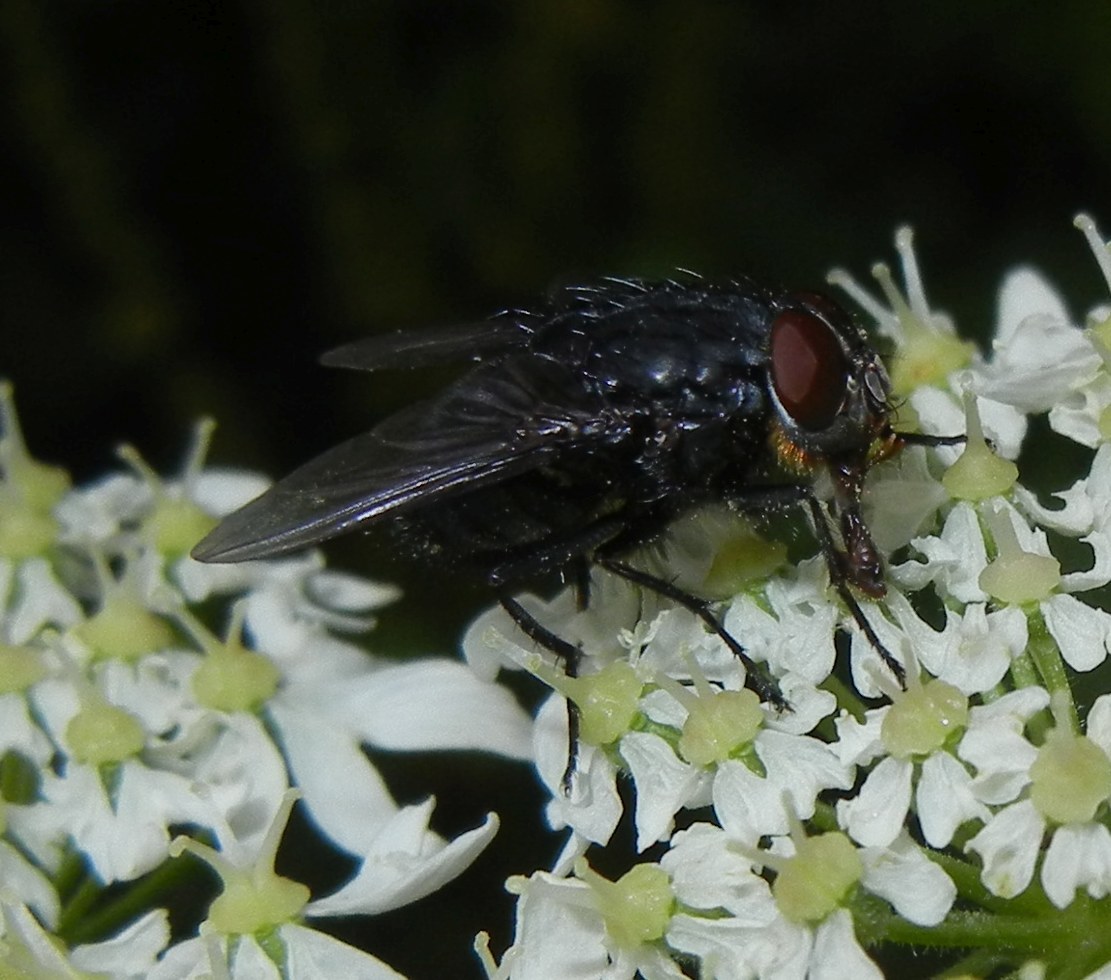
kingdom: Animalia
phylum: Arthropoda
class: Insecta
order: Diptera
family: Calliphoridae
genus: Calliphora
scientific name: Calliphora vomitoria
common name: Blue bottle fly
